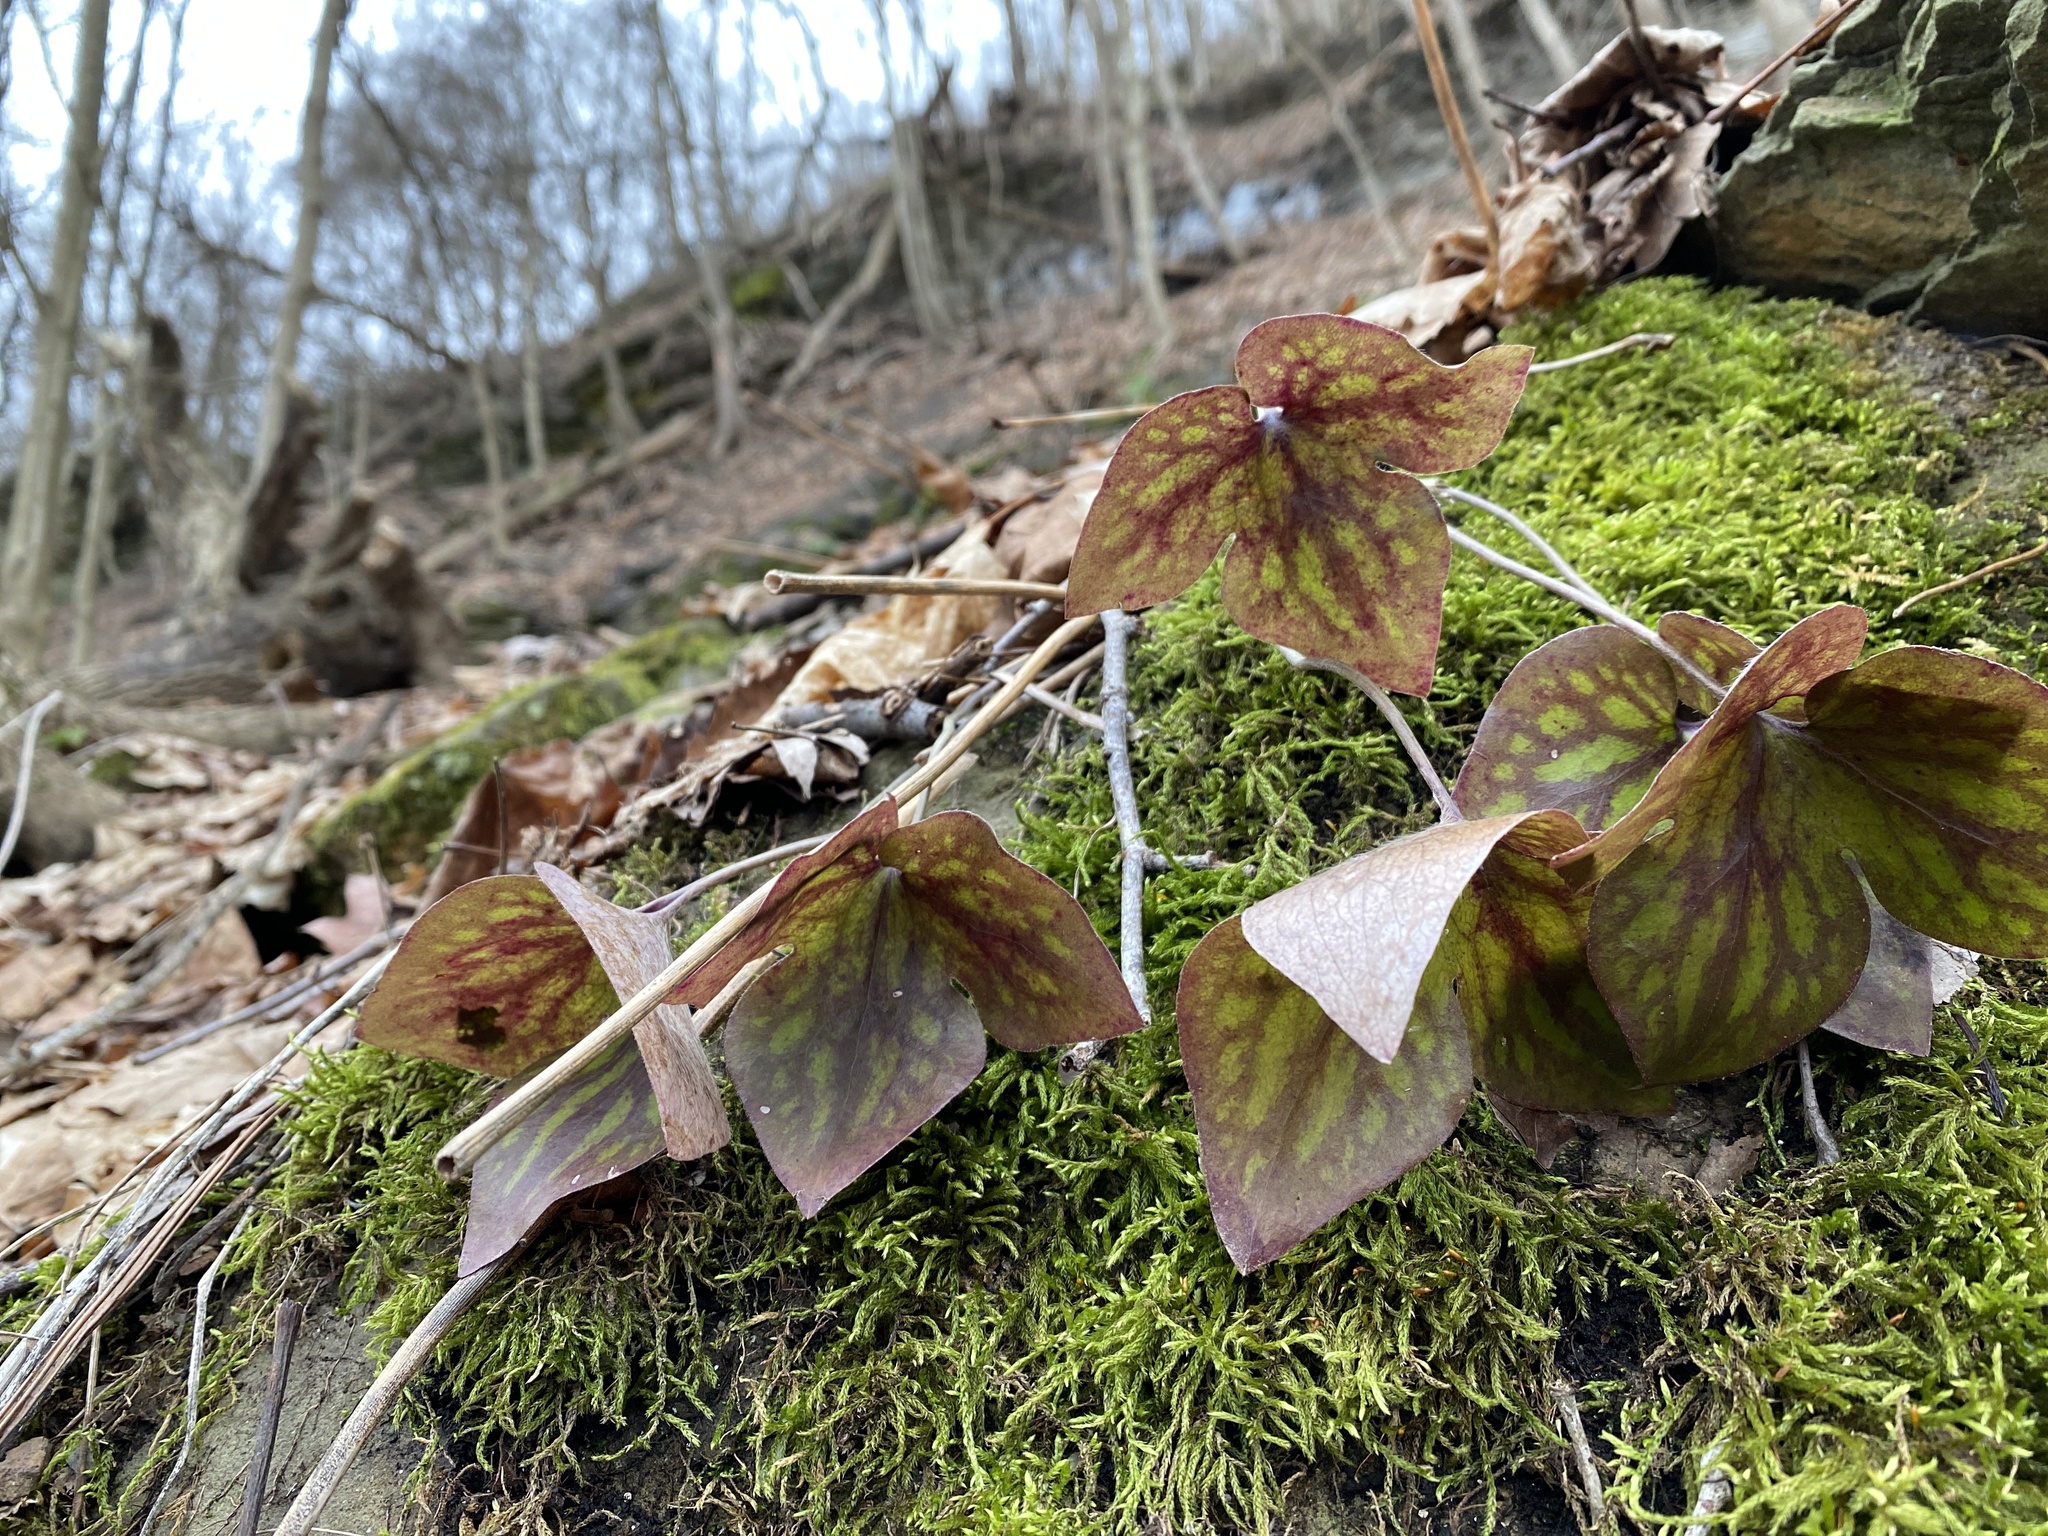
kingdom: Plantae
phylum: Tracheophyta
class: Magnoliopsida
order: Ranunculales
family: Ranunculaceae
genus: Hepatica
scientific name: Hepatica acutiloba
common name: Sharp-lobed hepatica
